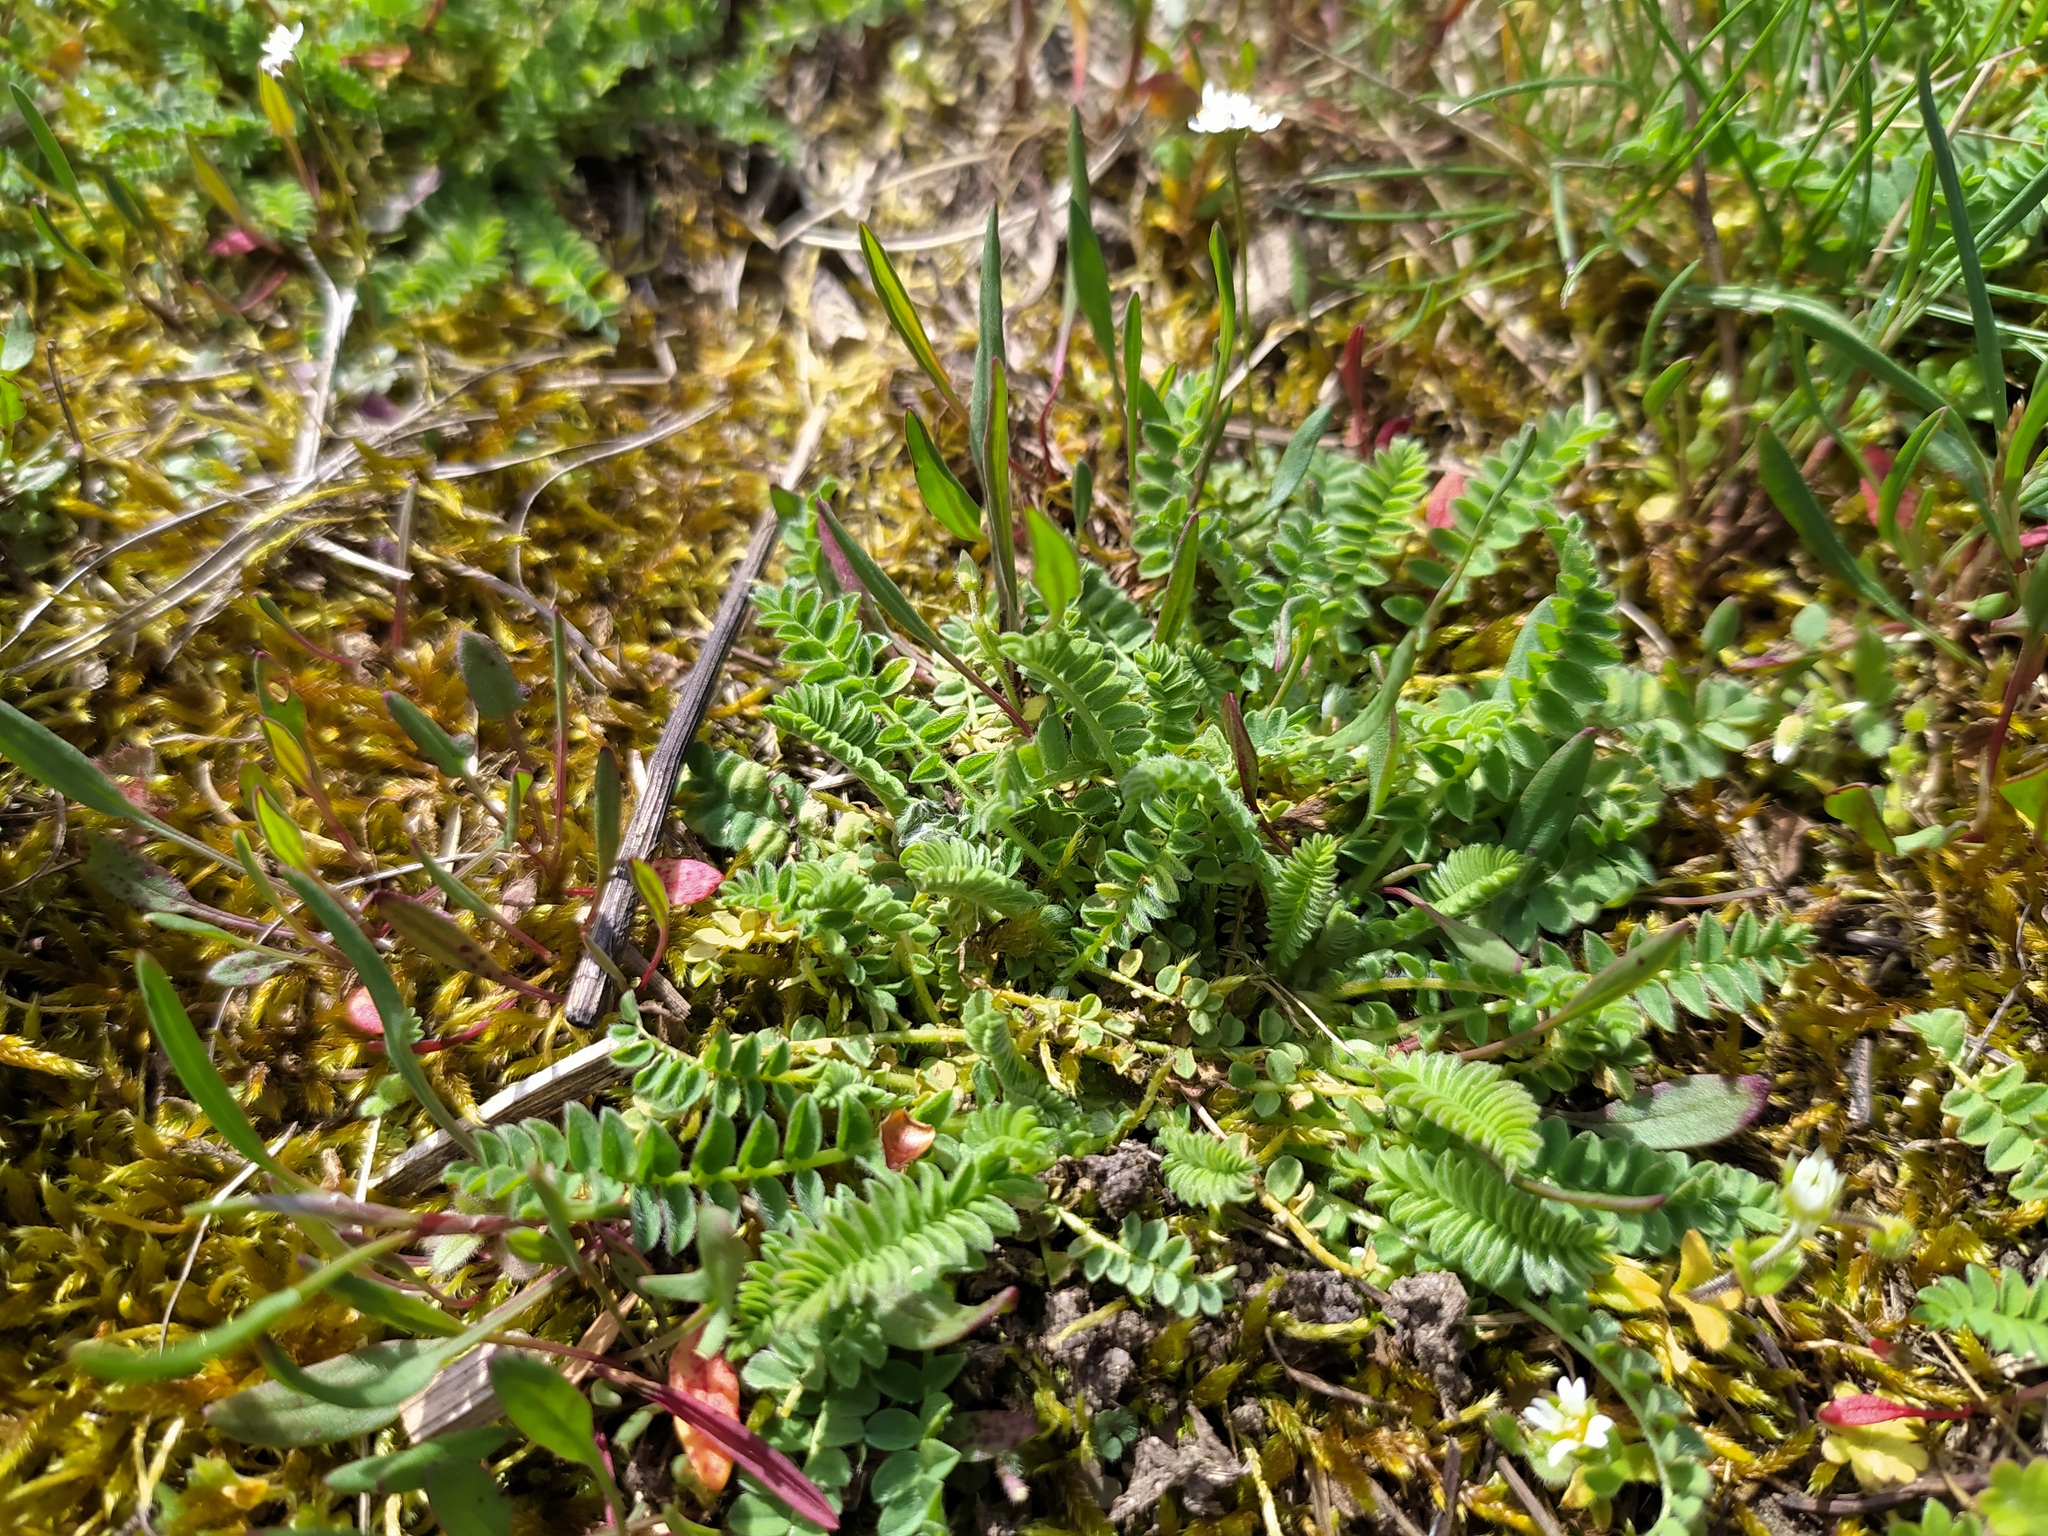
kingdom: Plantae
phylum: Tracheophyta
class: Magnoliopsida
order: Fabales
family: Fabaceae
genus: Ornithopus
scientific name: Ornithopus perpusillus
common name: Bird's-foot
